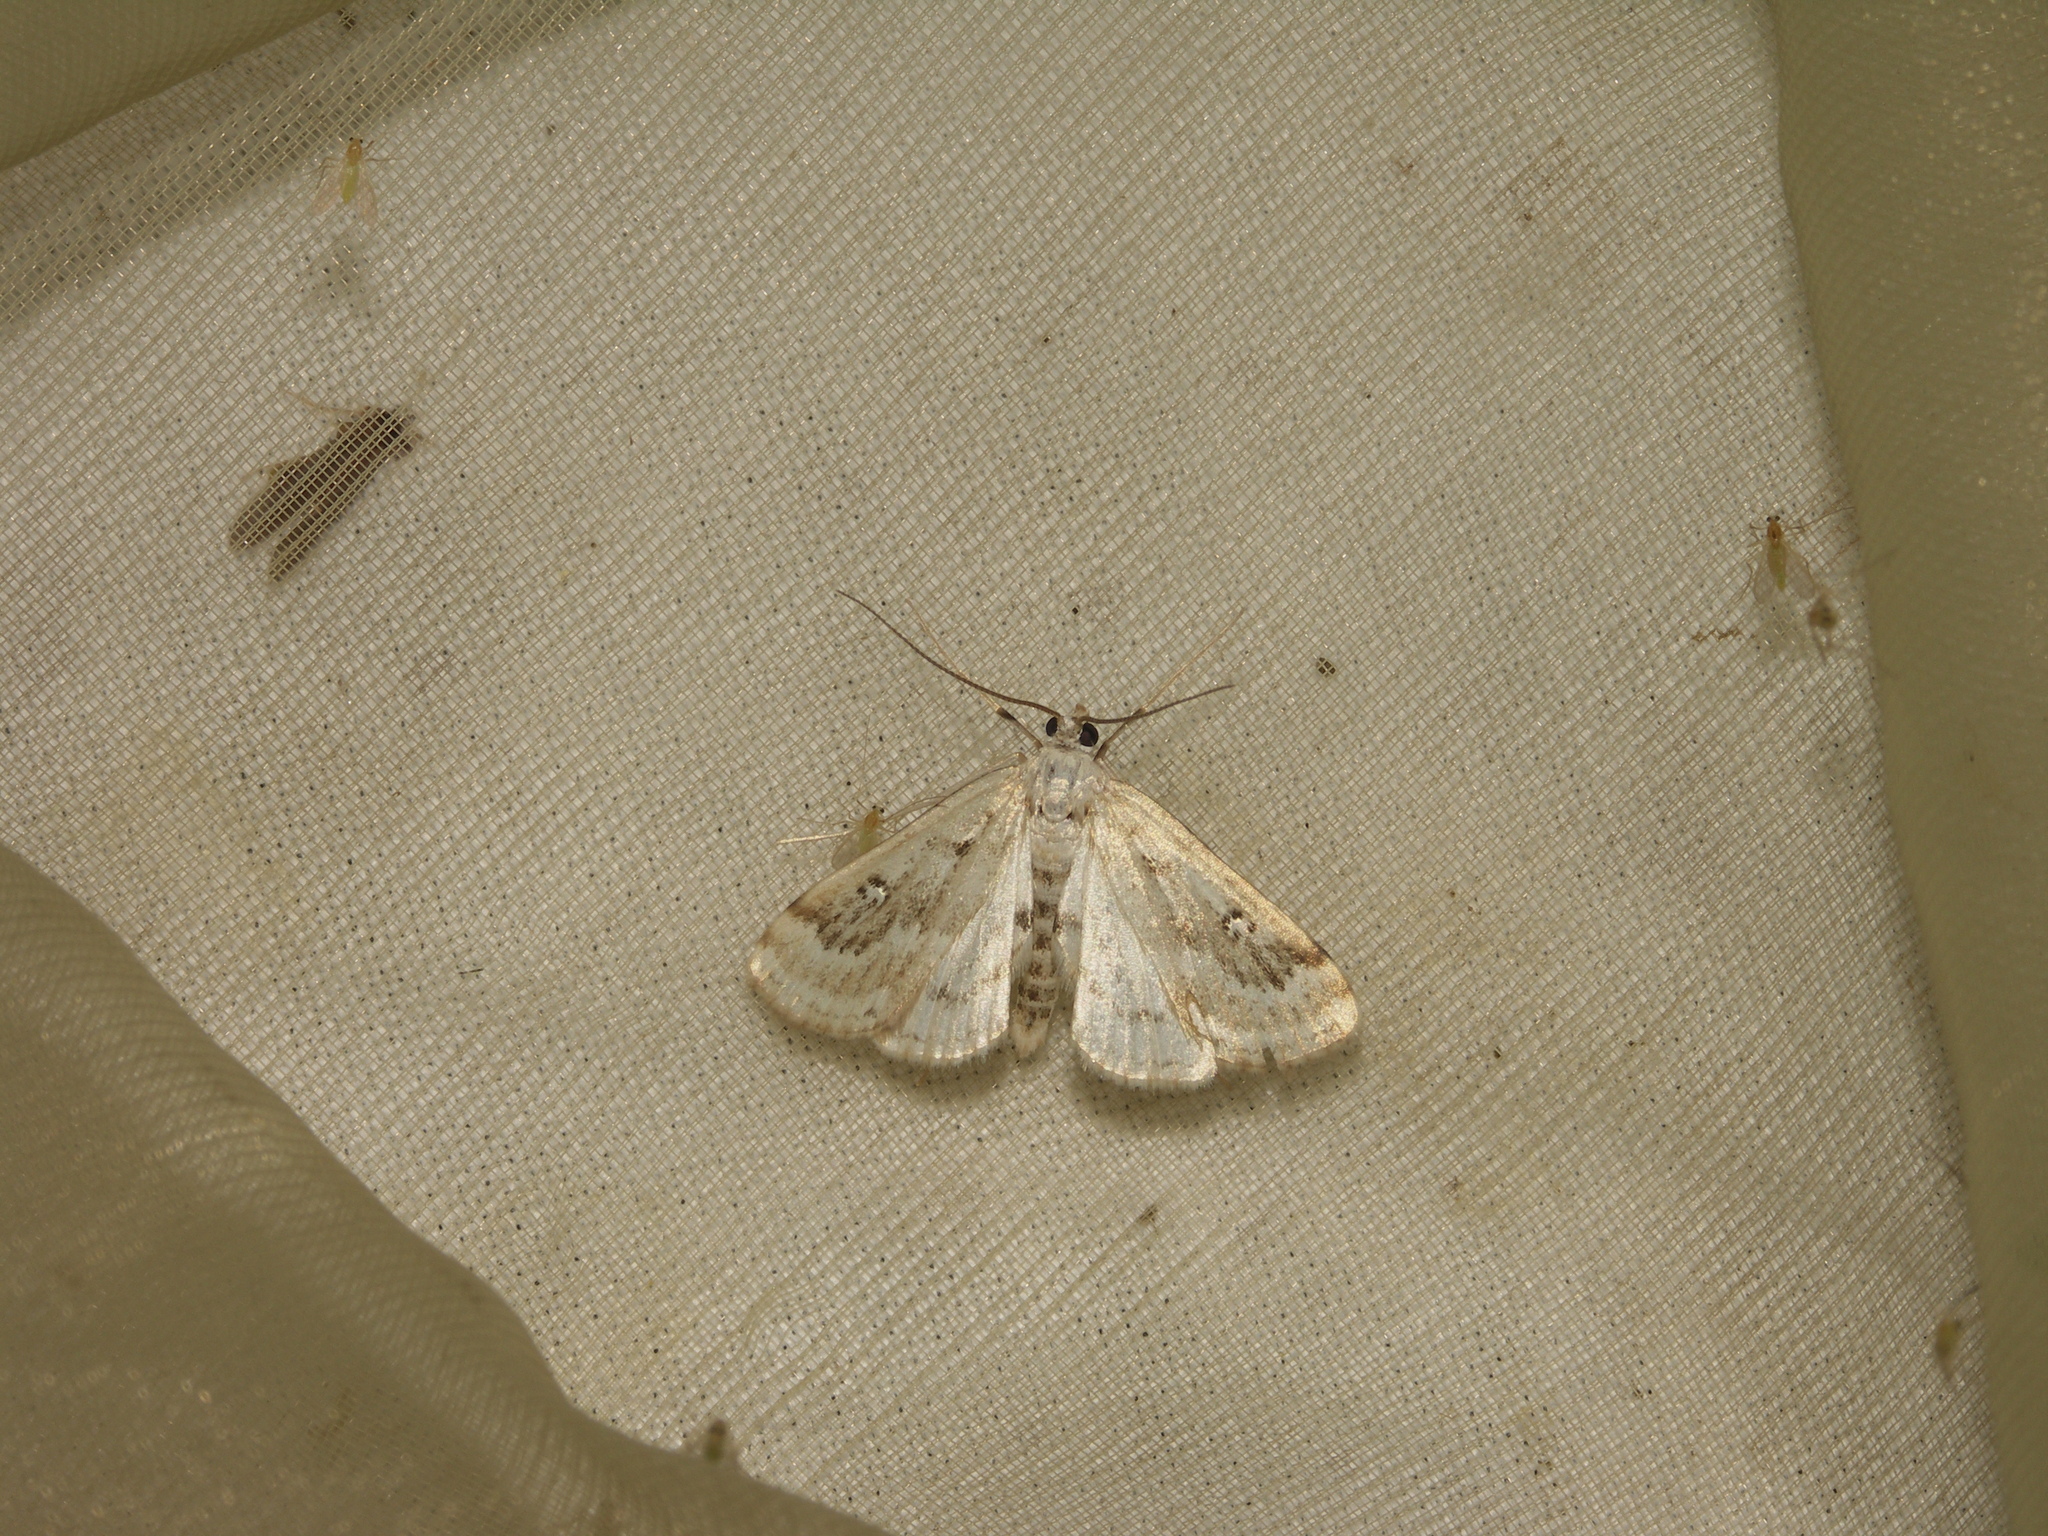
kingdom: Animalia
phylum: Arthropoda
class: Insecta
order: Lepidoptera
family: Crambidae
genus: Parapoynx
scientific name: Parapoynx stratiotata
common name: Ringed china-mark
